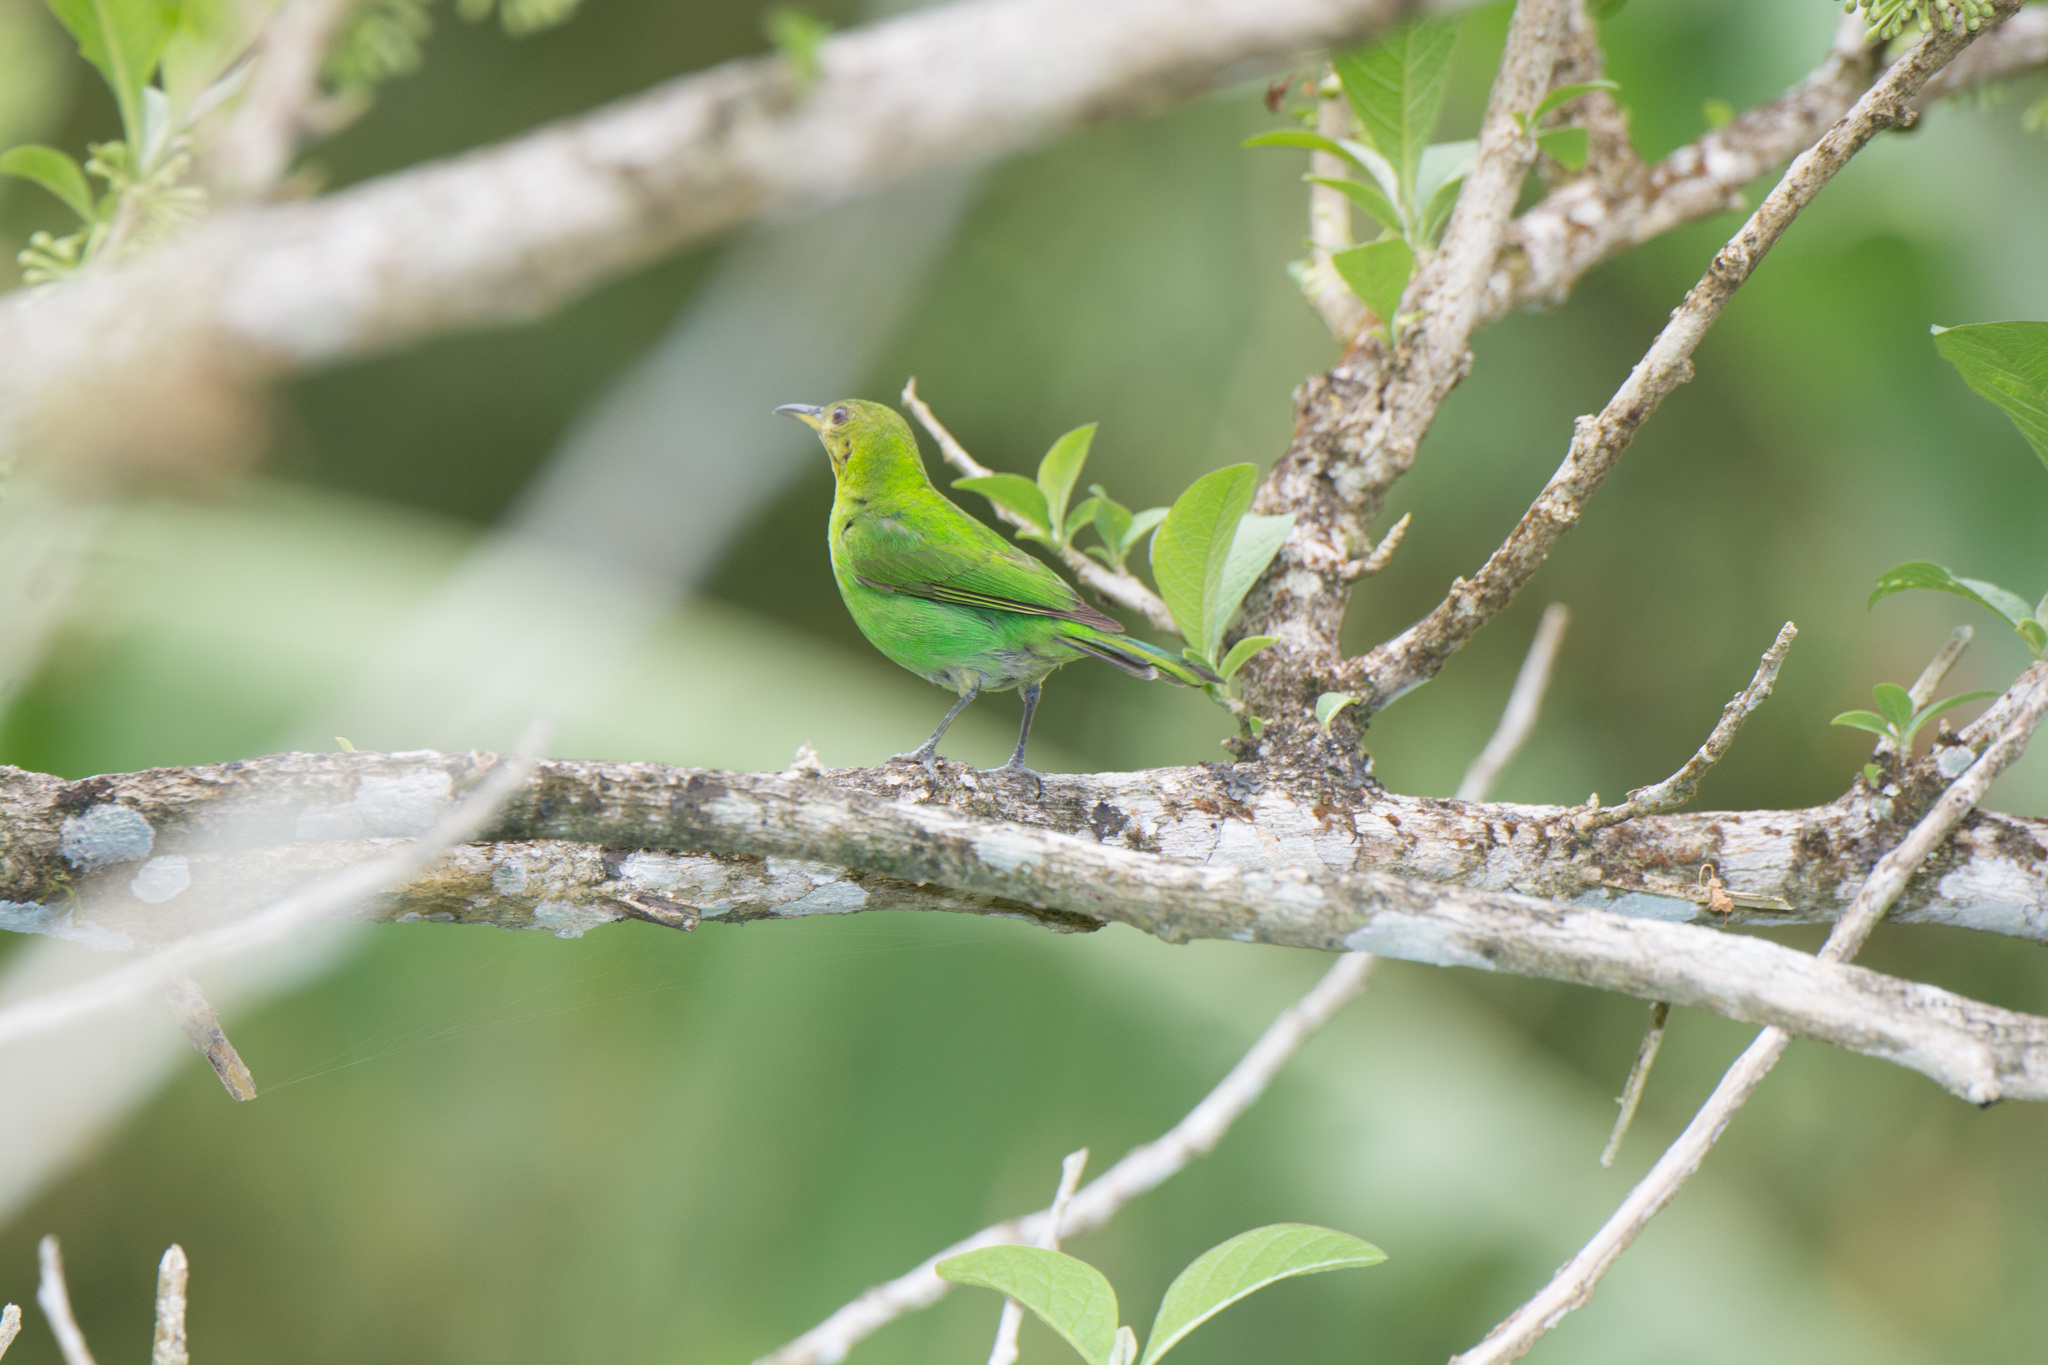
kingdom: Animalia
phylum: Chordata
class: Aves
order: Passeriformes
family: Thraupidae
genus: Chlorophanes
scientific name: Chlorophanes spiza
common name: Green honeycreeper
